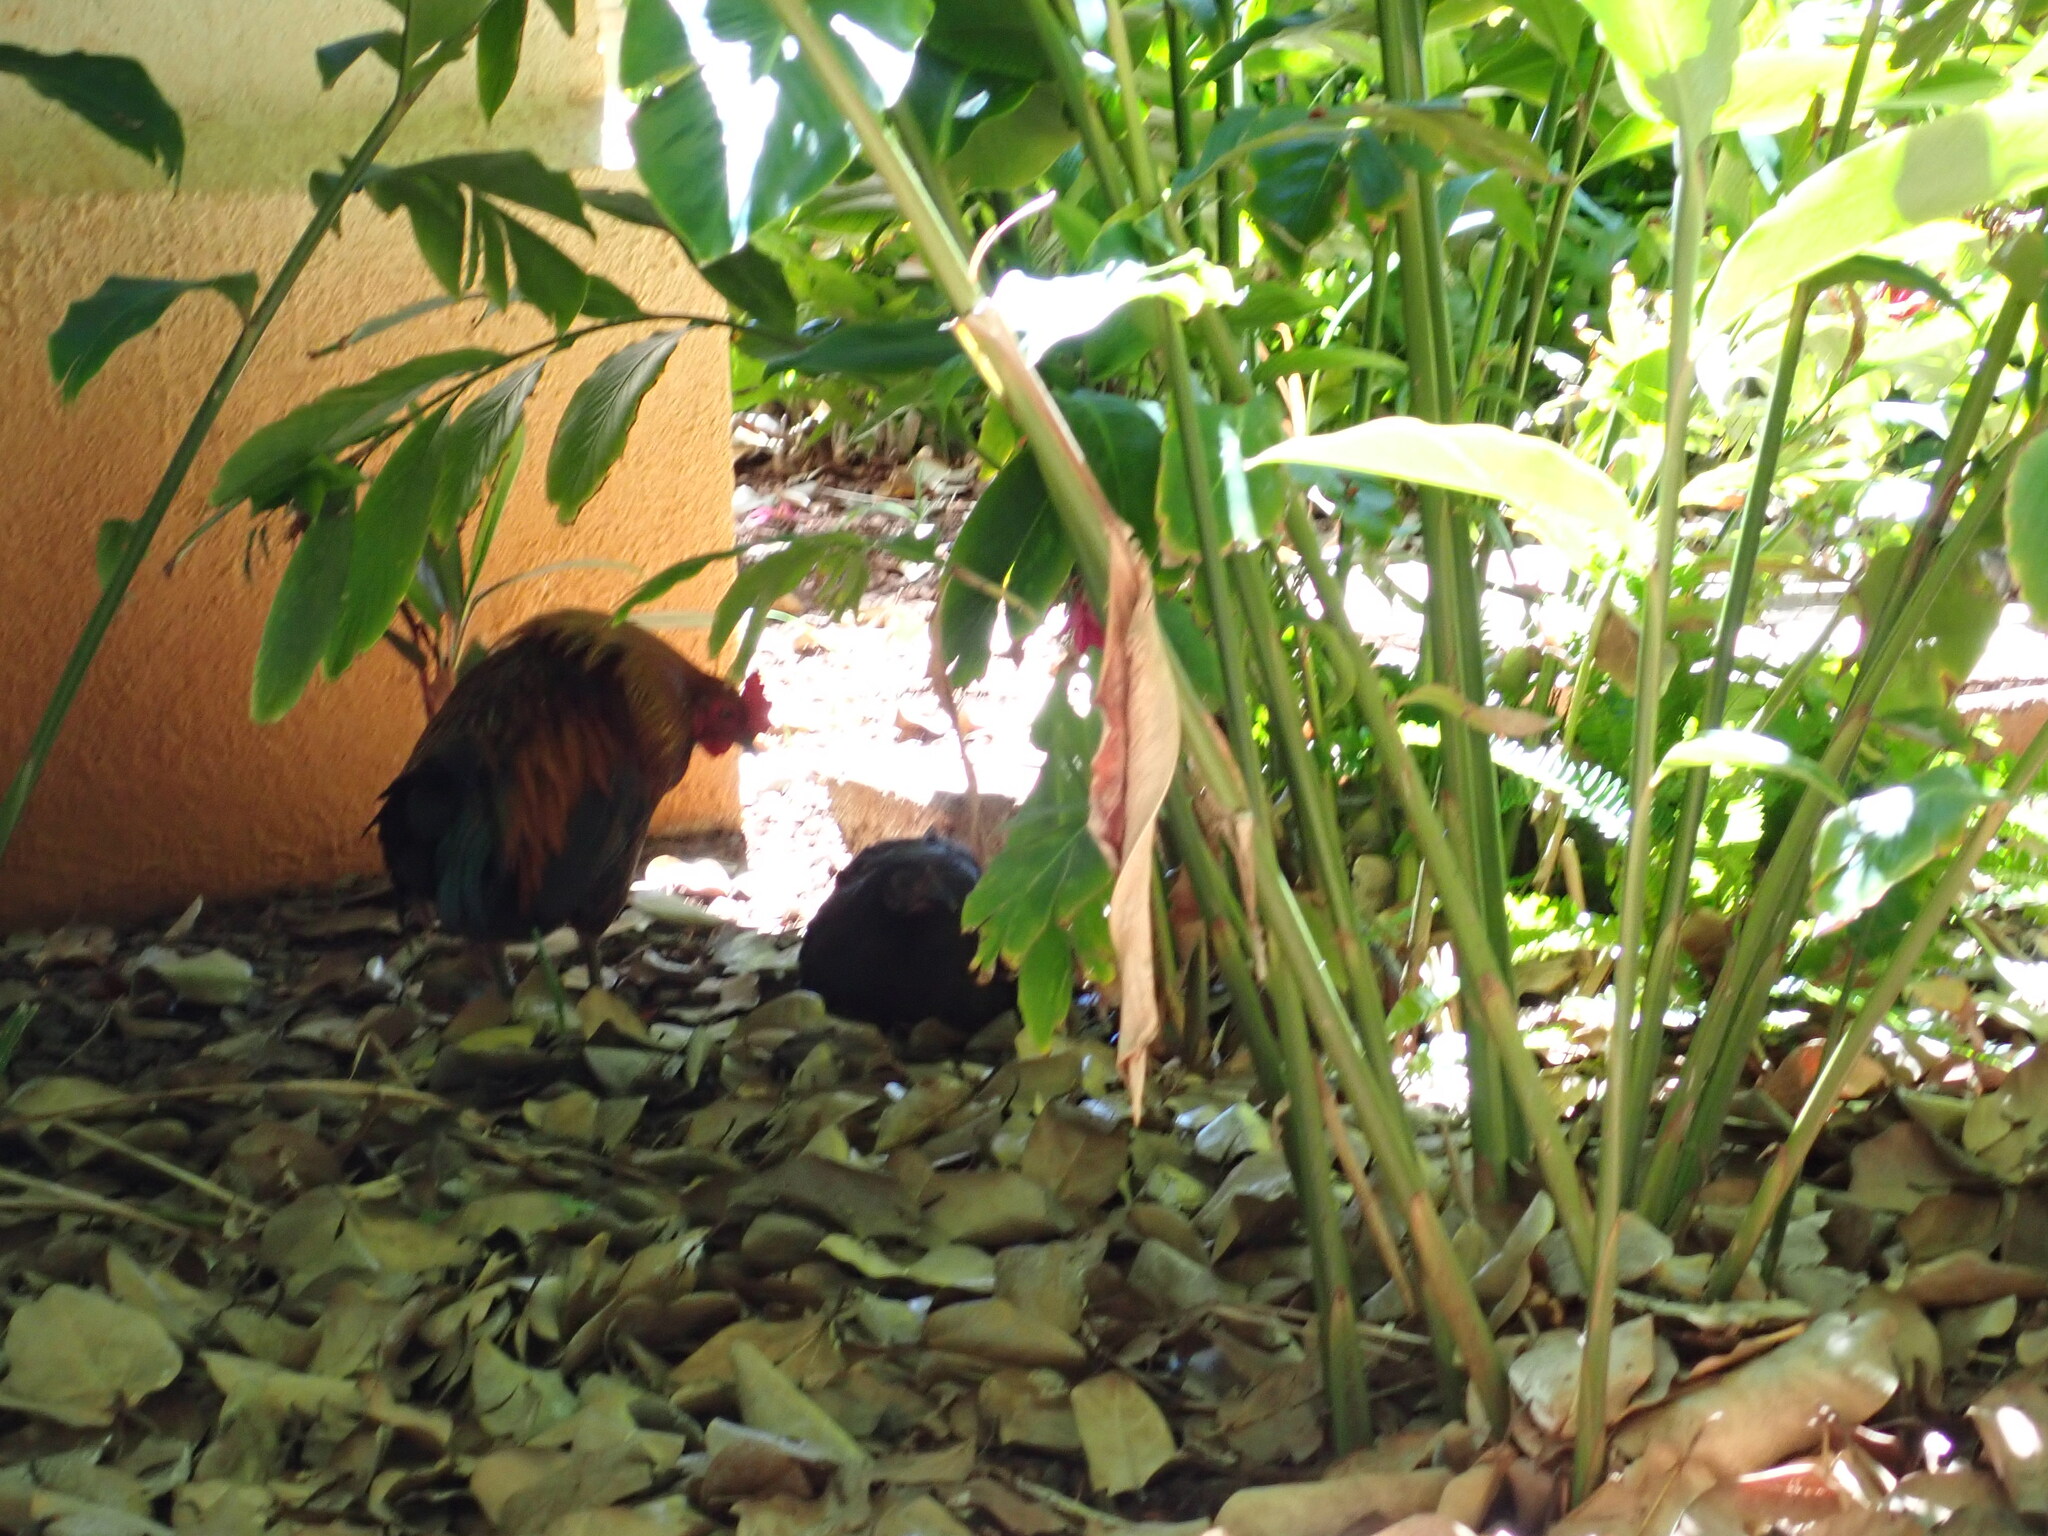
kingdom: Animalia
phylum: Chordata
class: Aves
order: Galliformes
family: Phasianidae
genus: Gallus
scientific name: Gallus gallus
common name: Red junglefowl
